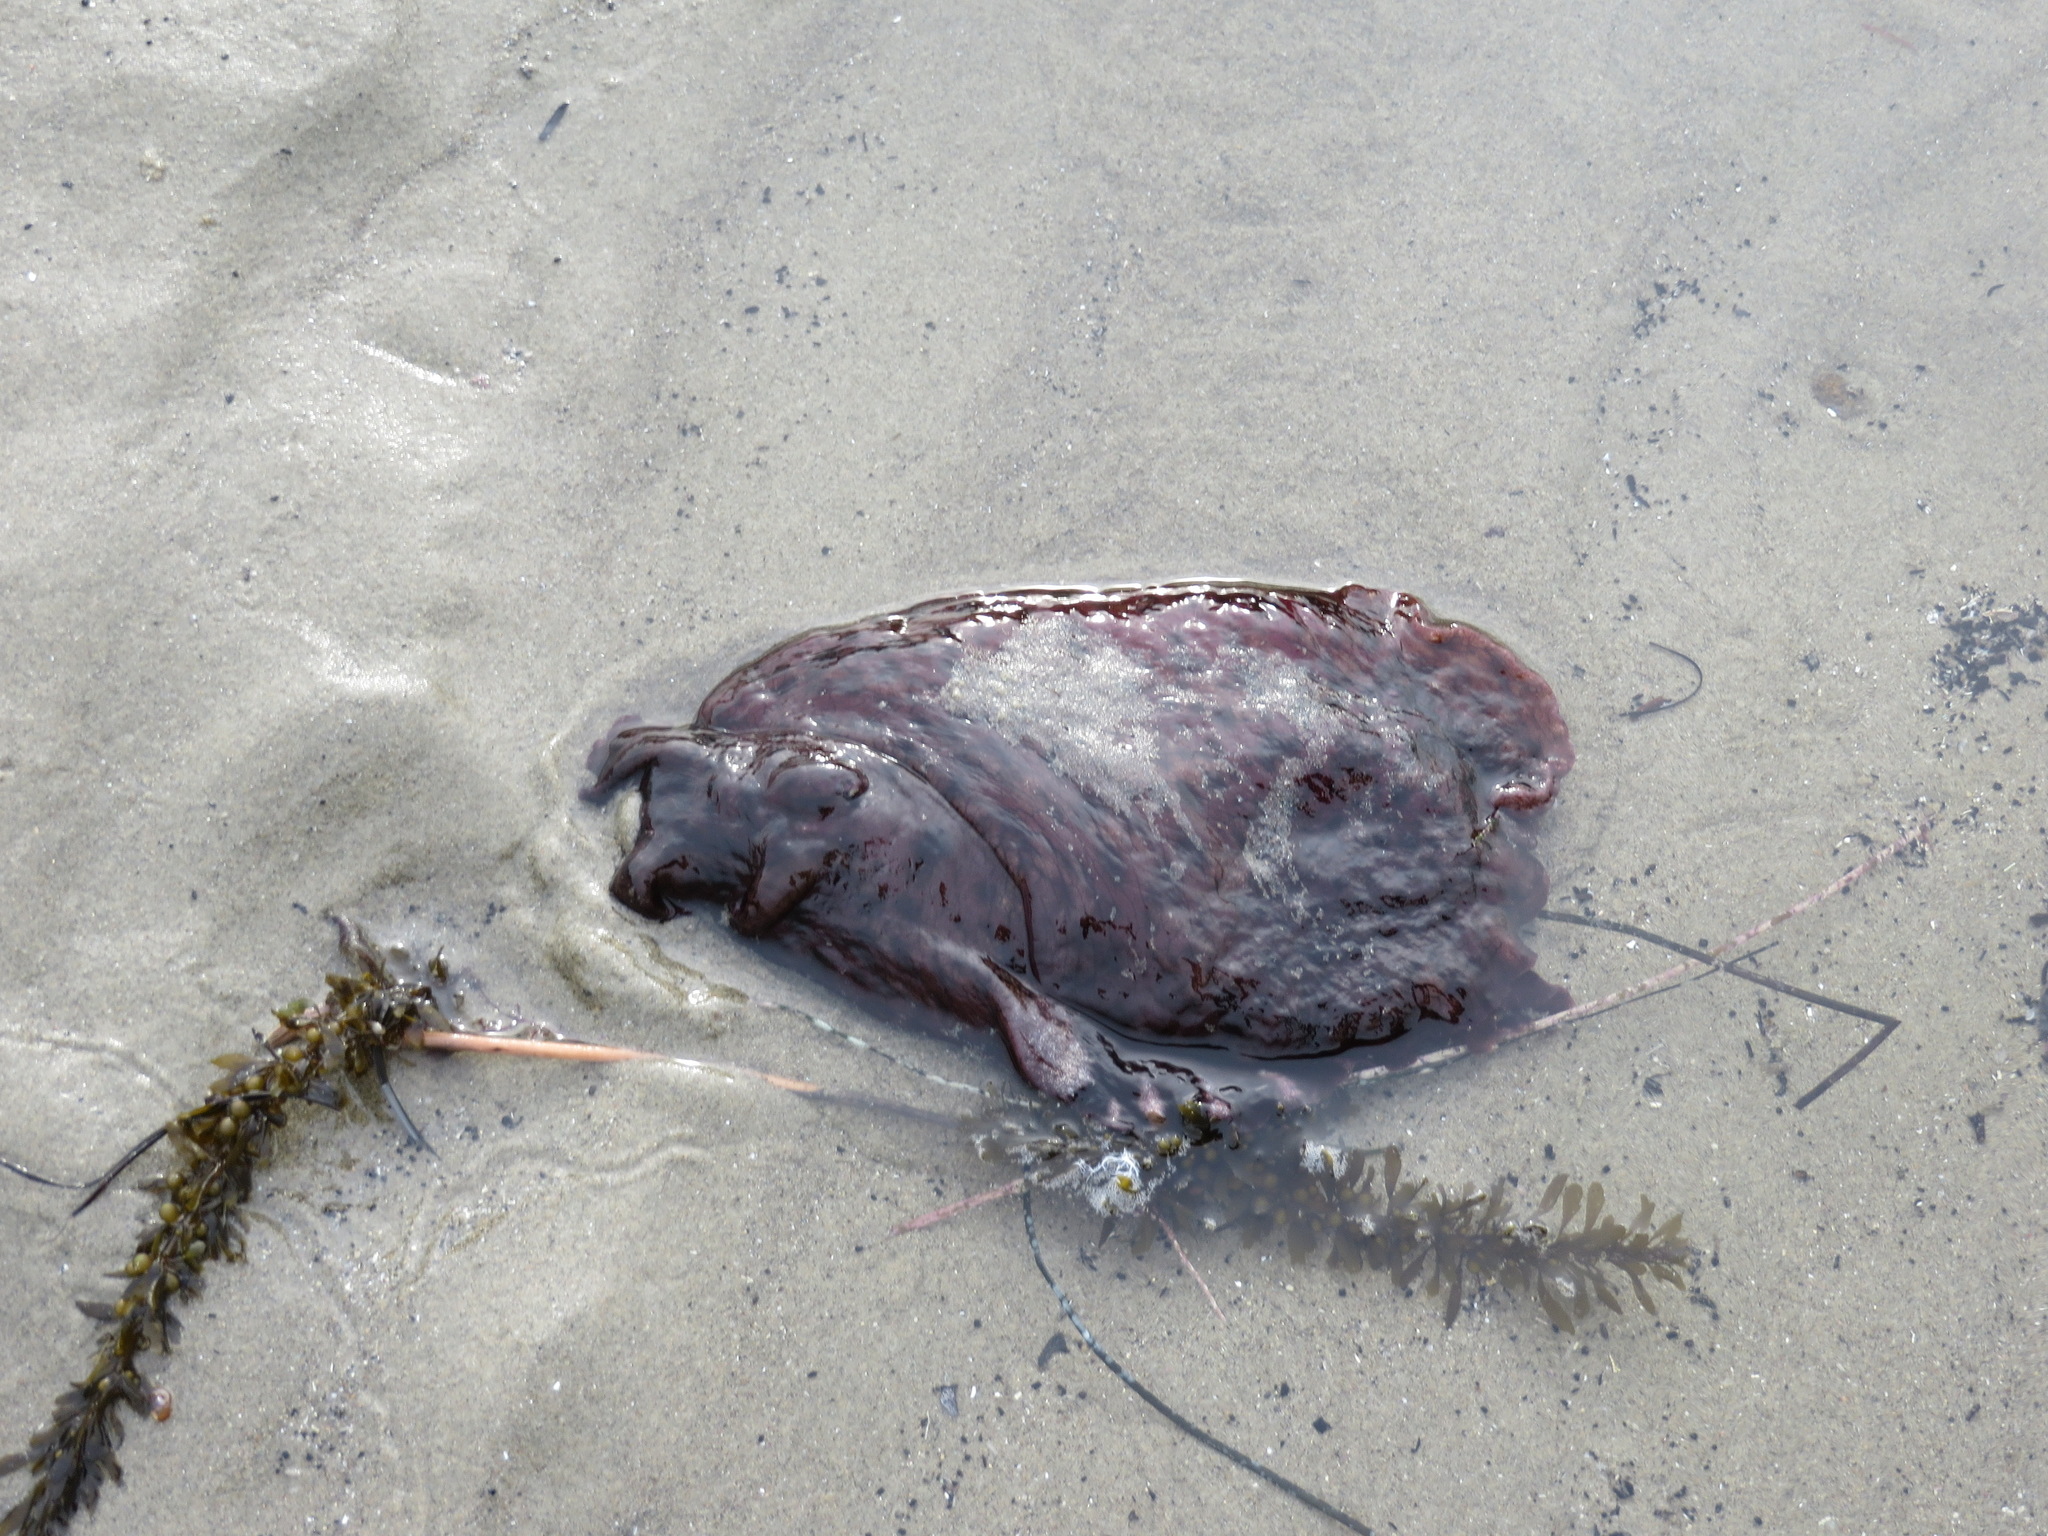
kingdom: Animalia
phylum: Mollusca
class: Gastropoda
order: Aplysiida
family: Aplysiidae
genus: Aplysia
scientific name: Aplysia californica
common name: California seahare
